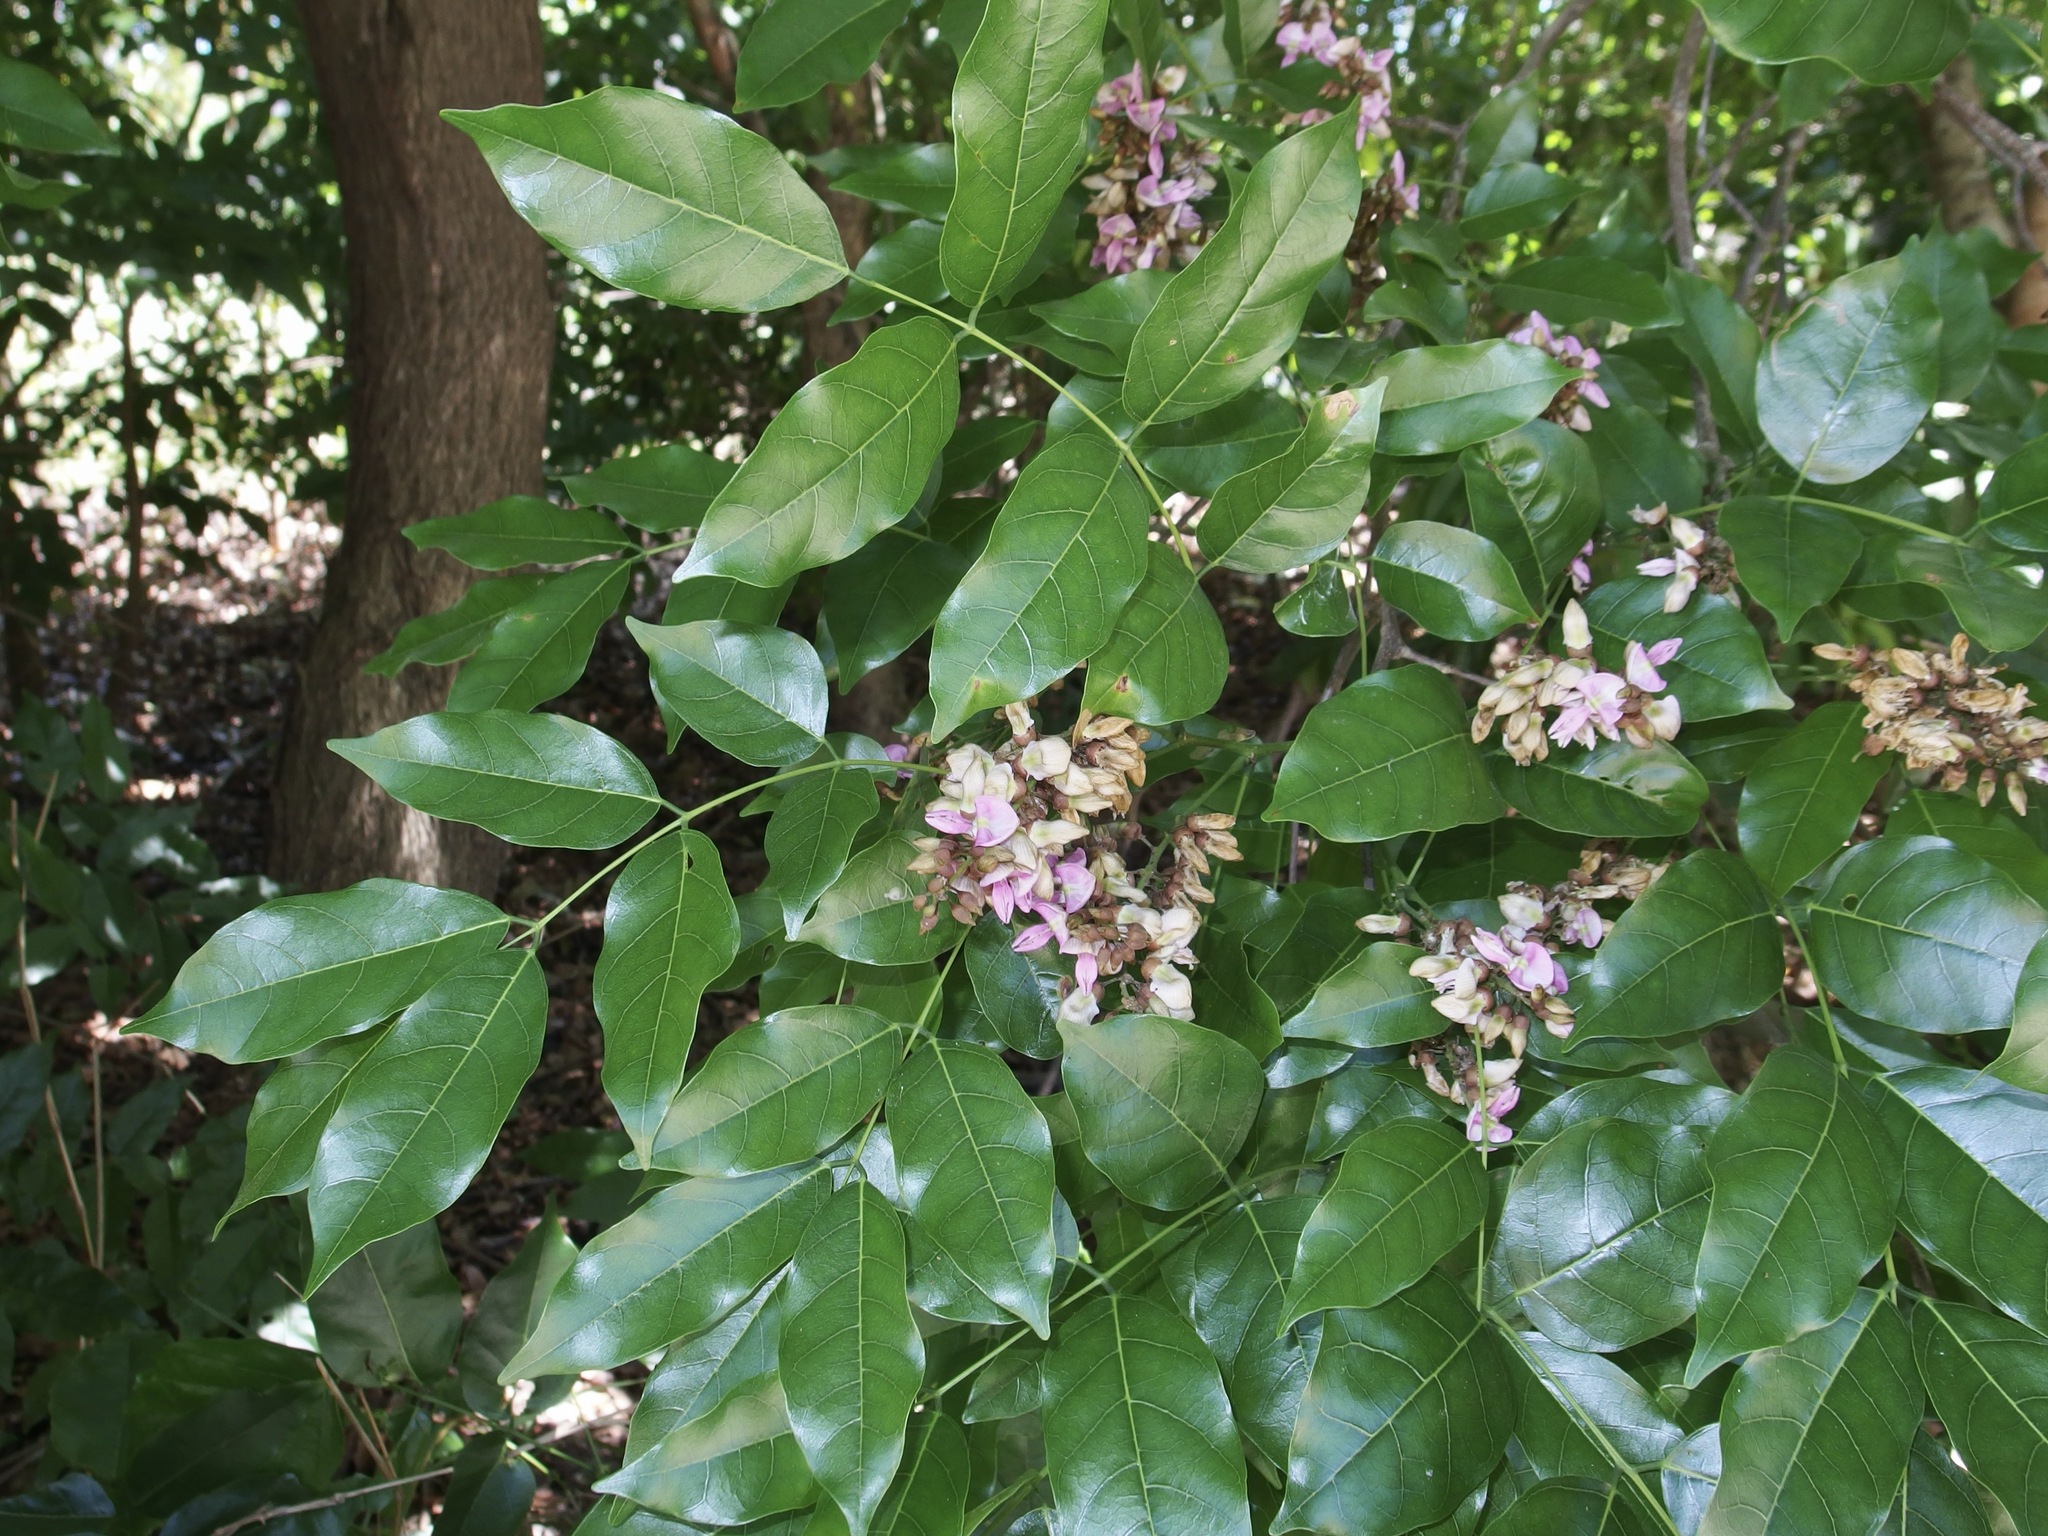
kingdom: Plantae
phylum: Tracheophyta
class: Magnoliopsida
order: Fabales
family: Fabaceae
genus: Pongamia
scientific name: Pongamia pinnata
